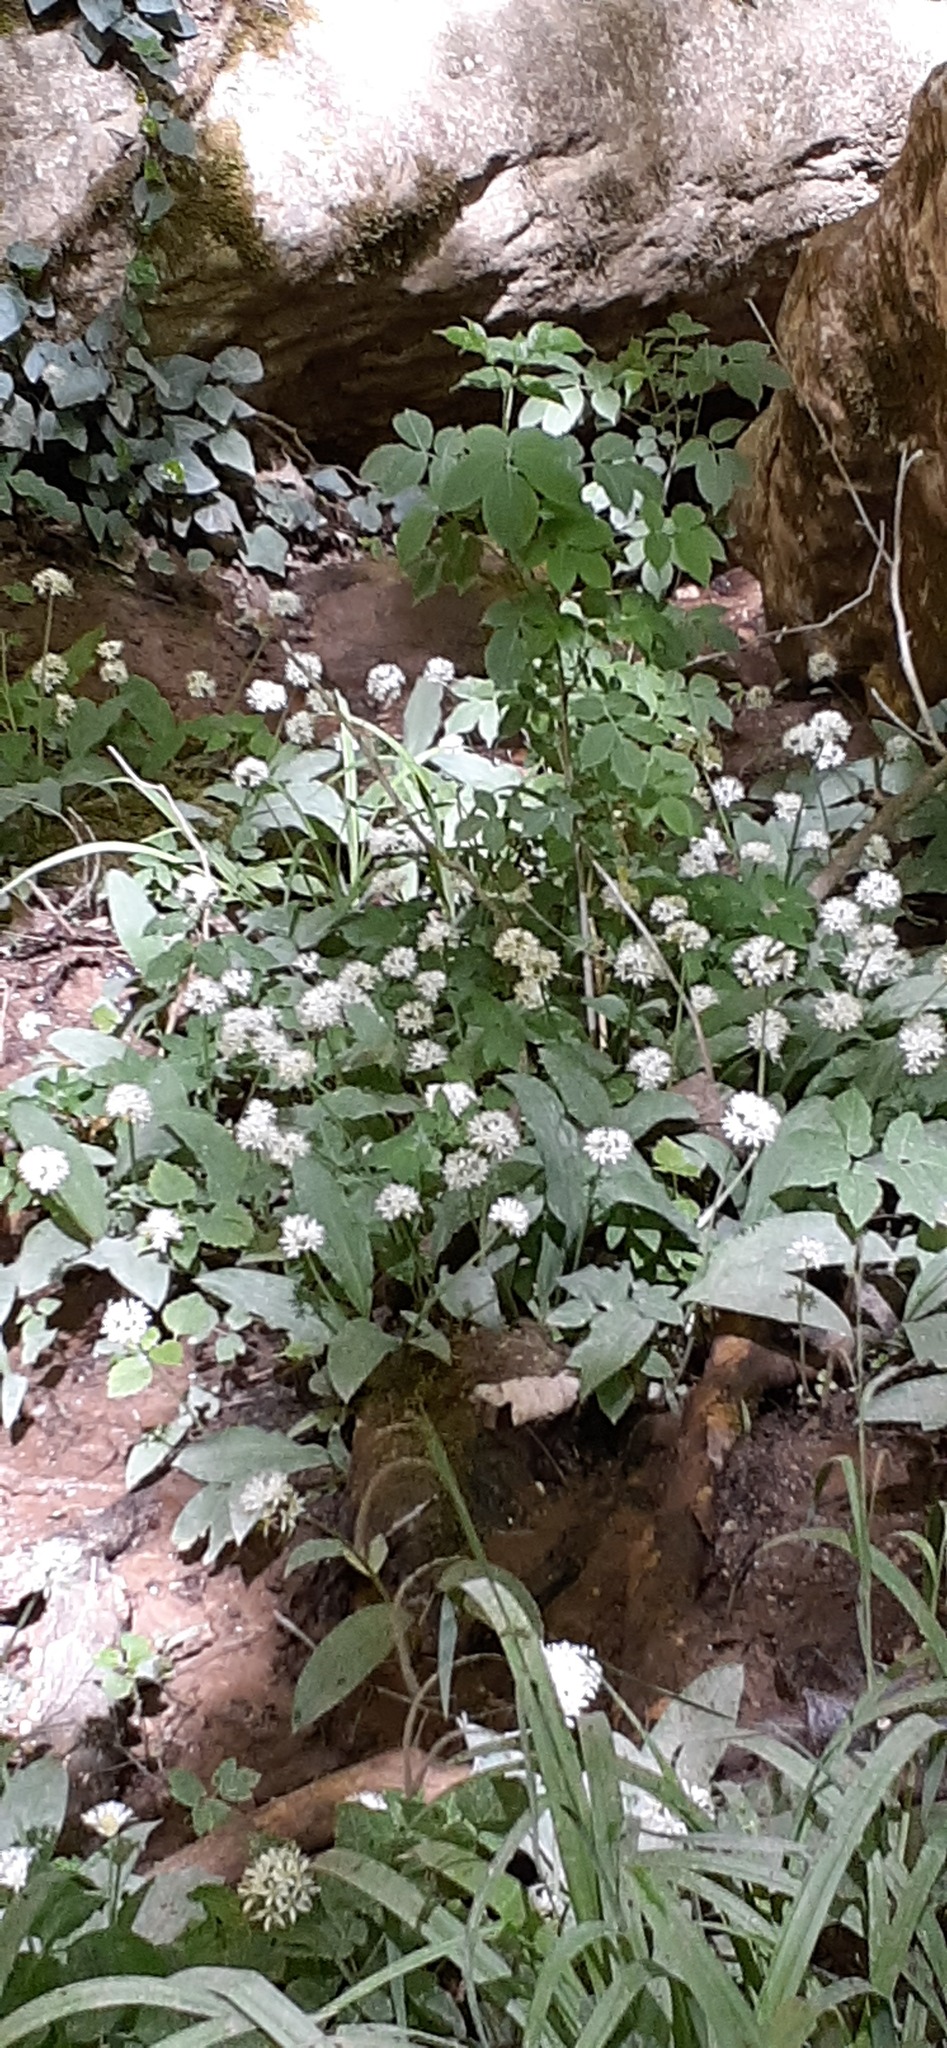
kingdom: Plantae
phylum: Tracheophyta
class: Liliopsida
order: Asparagales
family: Amaryllidaceae
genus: Allium
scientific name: Allium ursinum
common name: Ramsons
